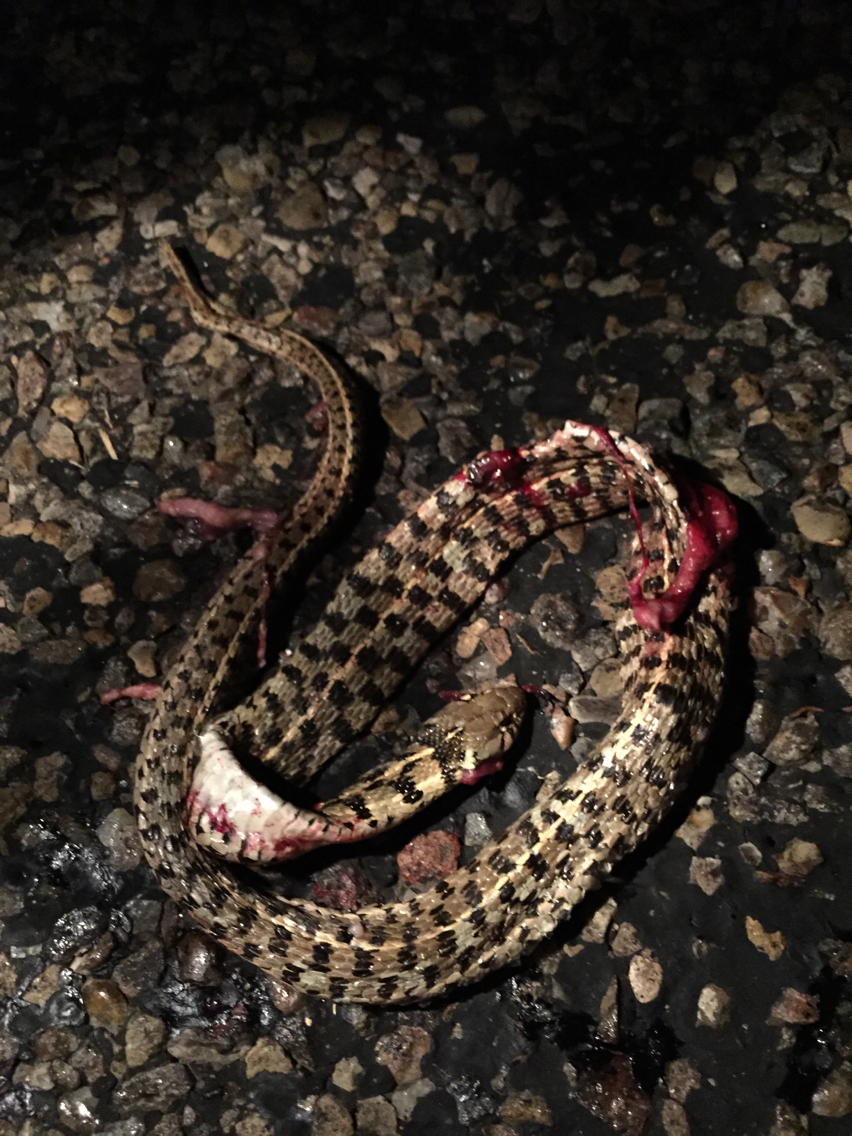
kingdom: Animalia
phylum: Chordata
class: Squamata
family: Colubridae
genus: Thamnophis
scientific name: Thamnophis marcianus
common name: Checkered garter snake
